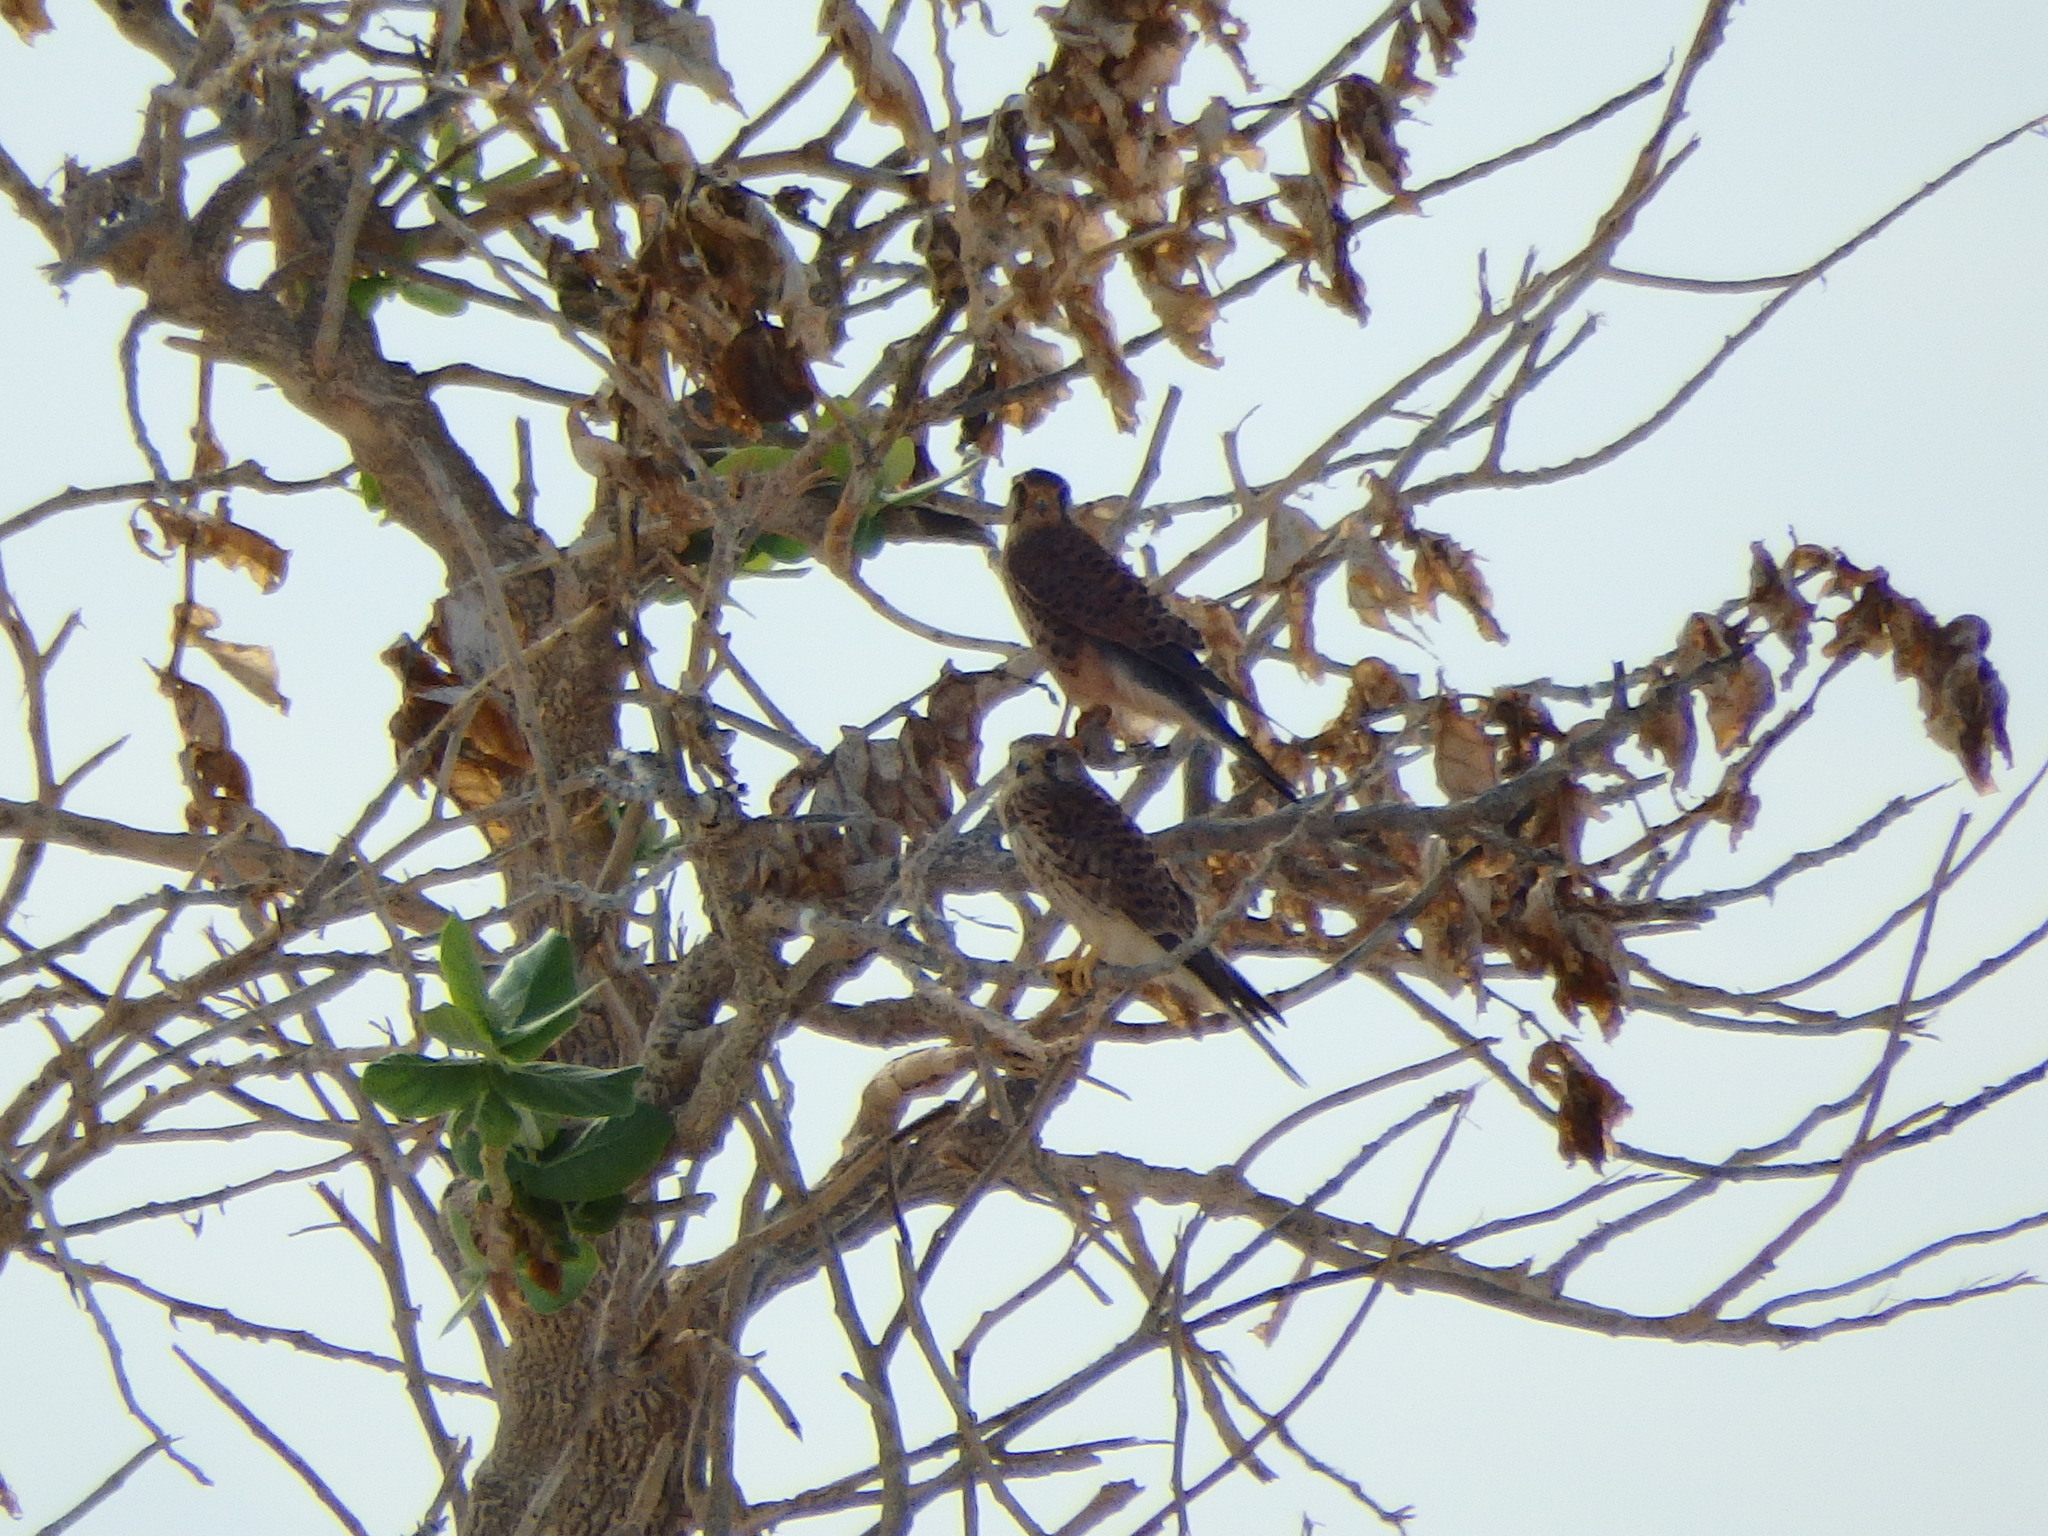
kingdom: Animalia
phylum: Chordata
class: Aves
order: Falconiformes
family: Falconidae
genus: Falco
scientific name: Falco tinnunculus
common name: Common kestrel
